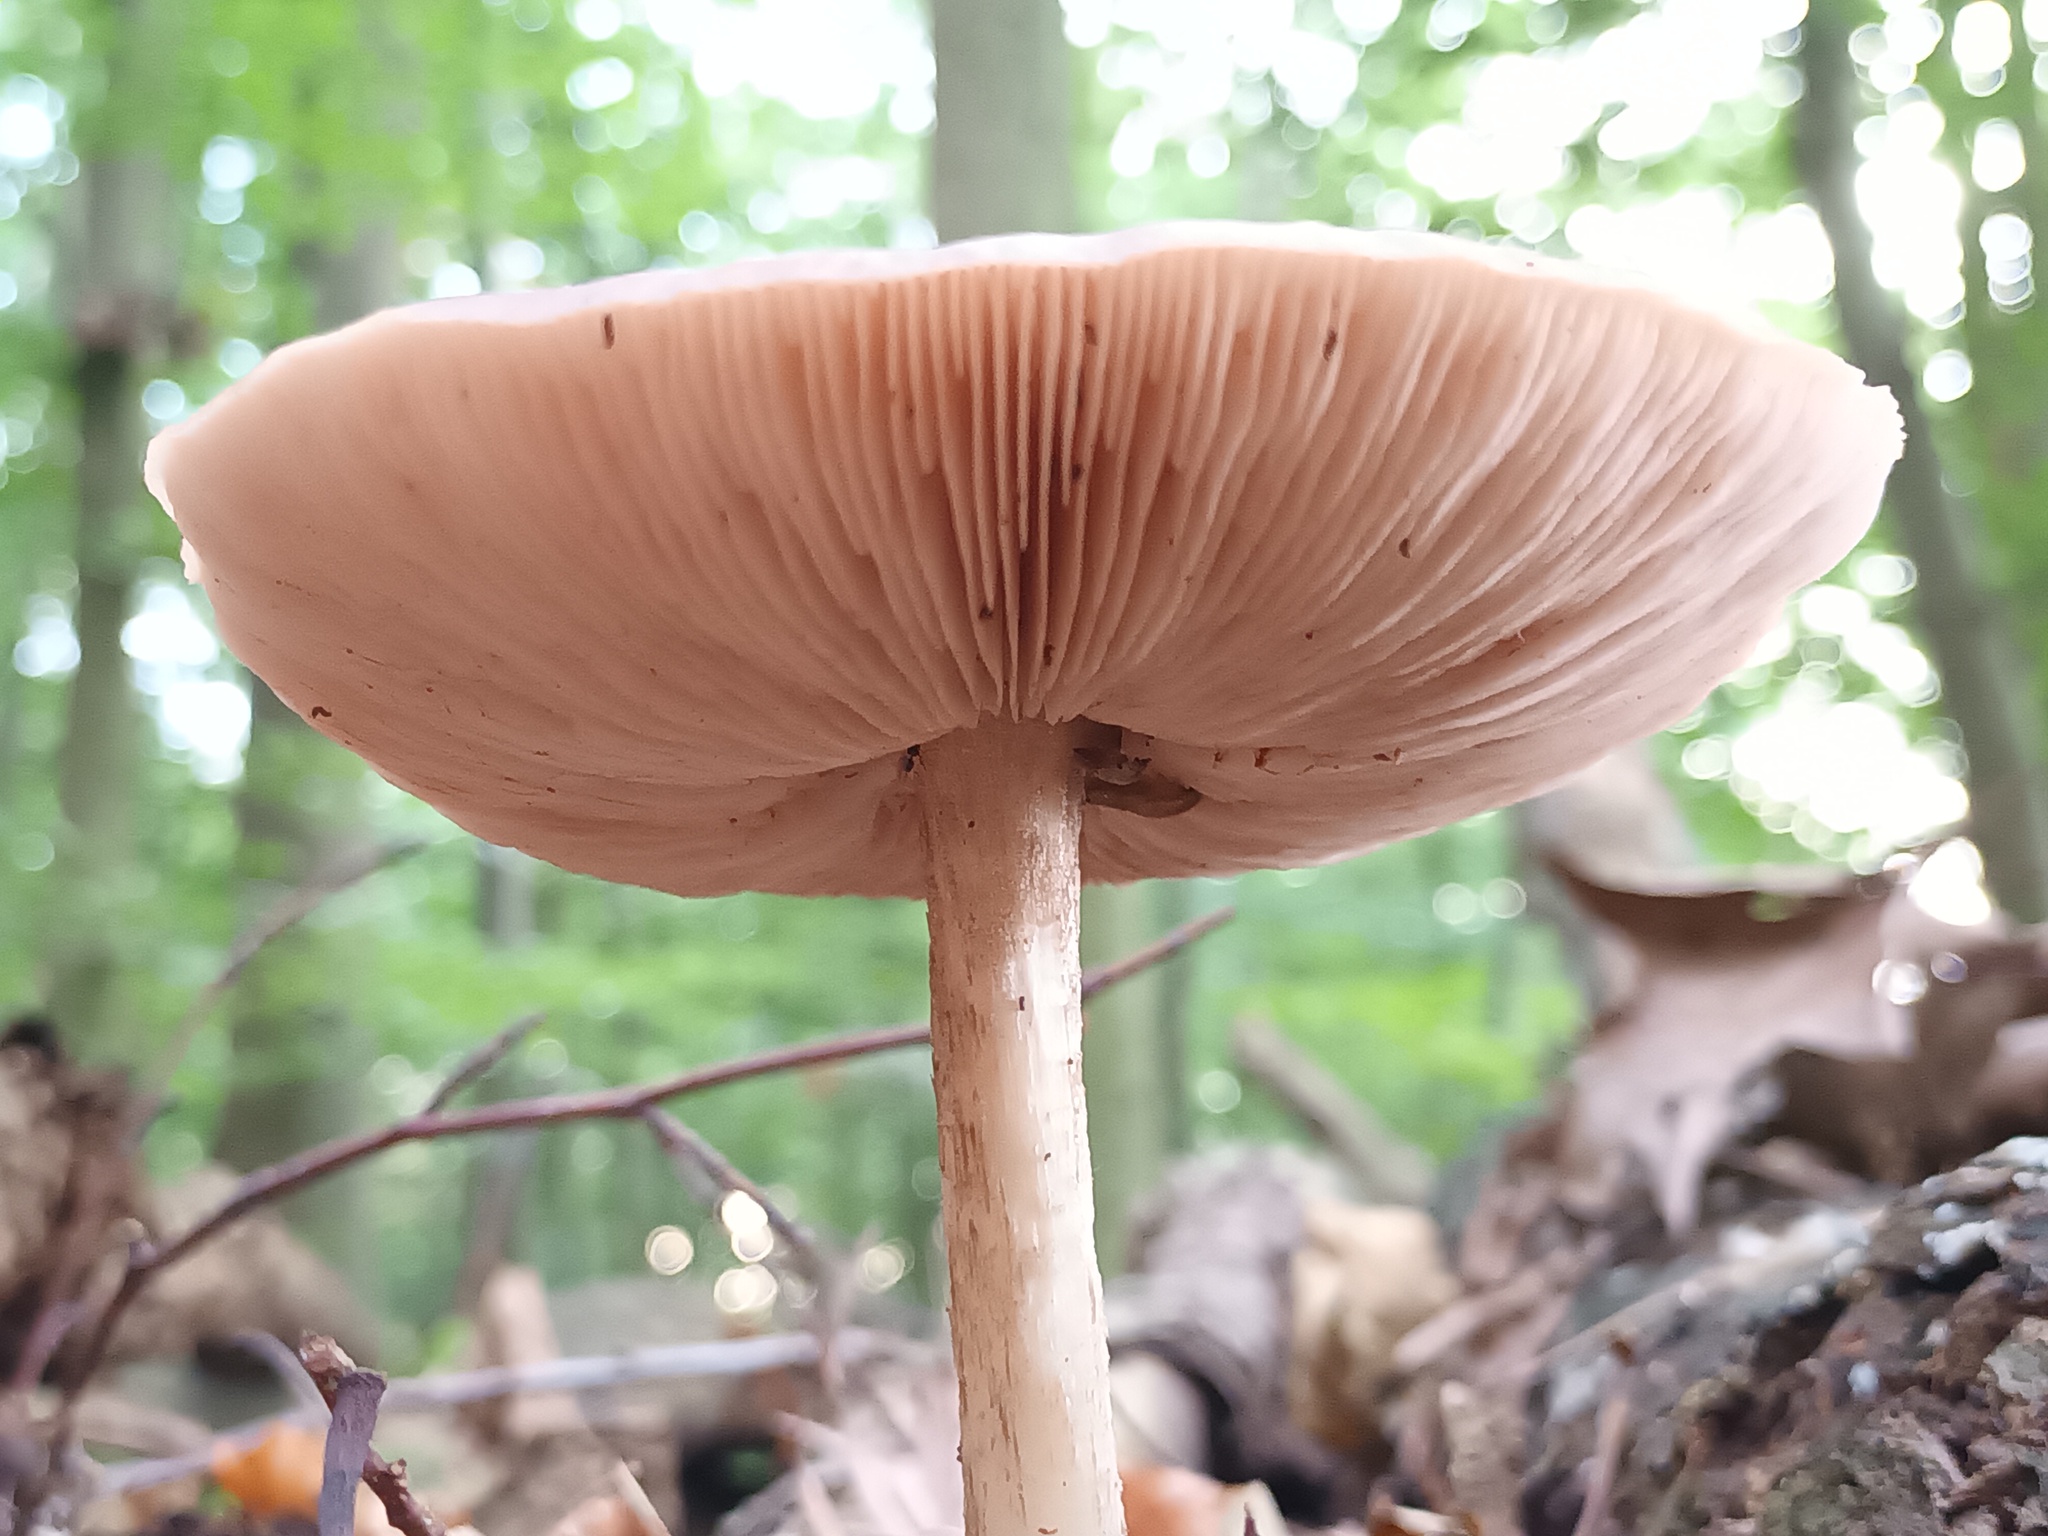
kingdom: Fungi
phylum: Basidiomycota
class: Agaricomycetes
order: Agaricales
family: Pluteaceae
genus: Pluteus
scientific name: Pluteus cervinus
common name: Deer shield
